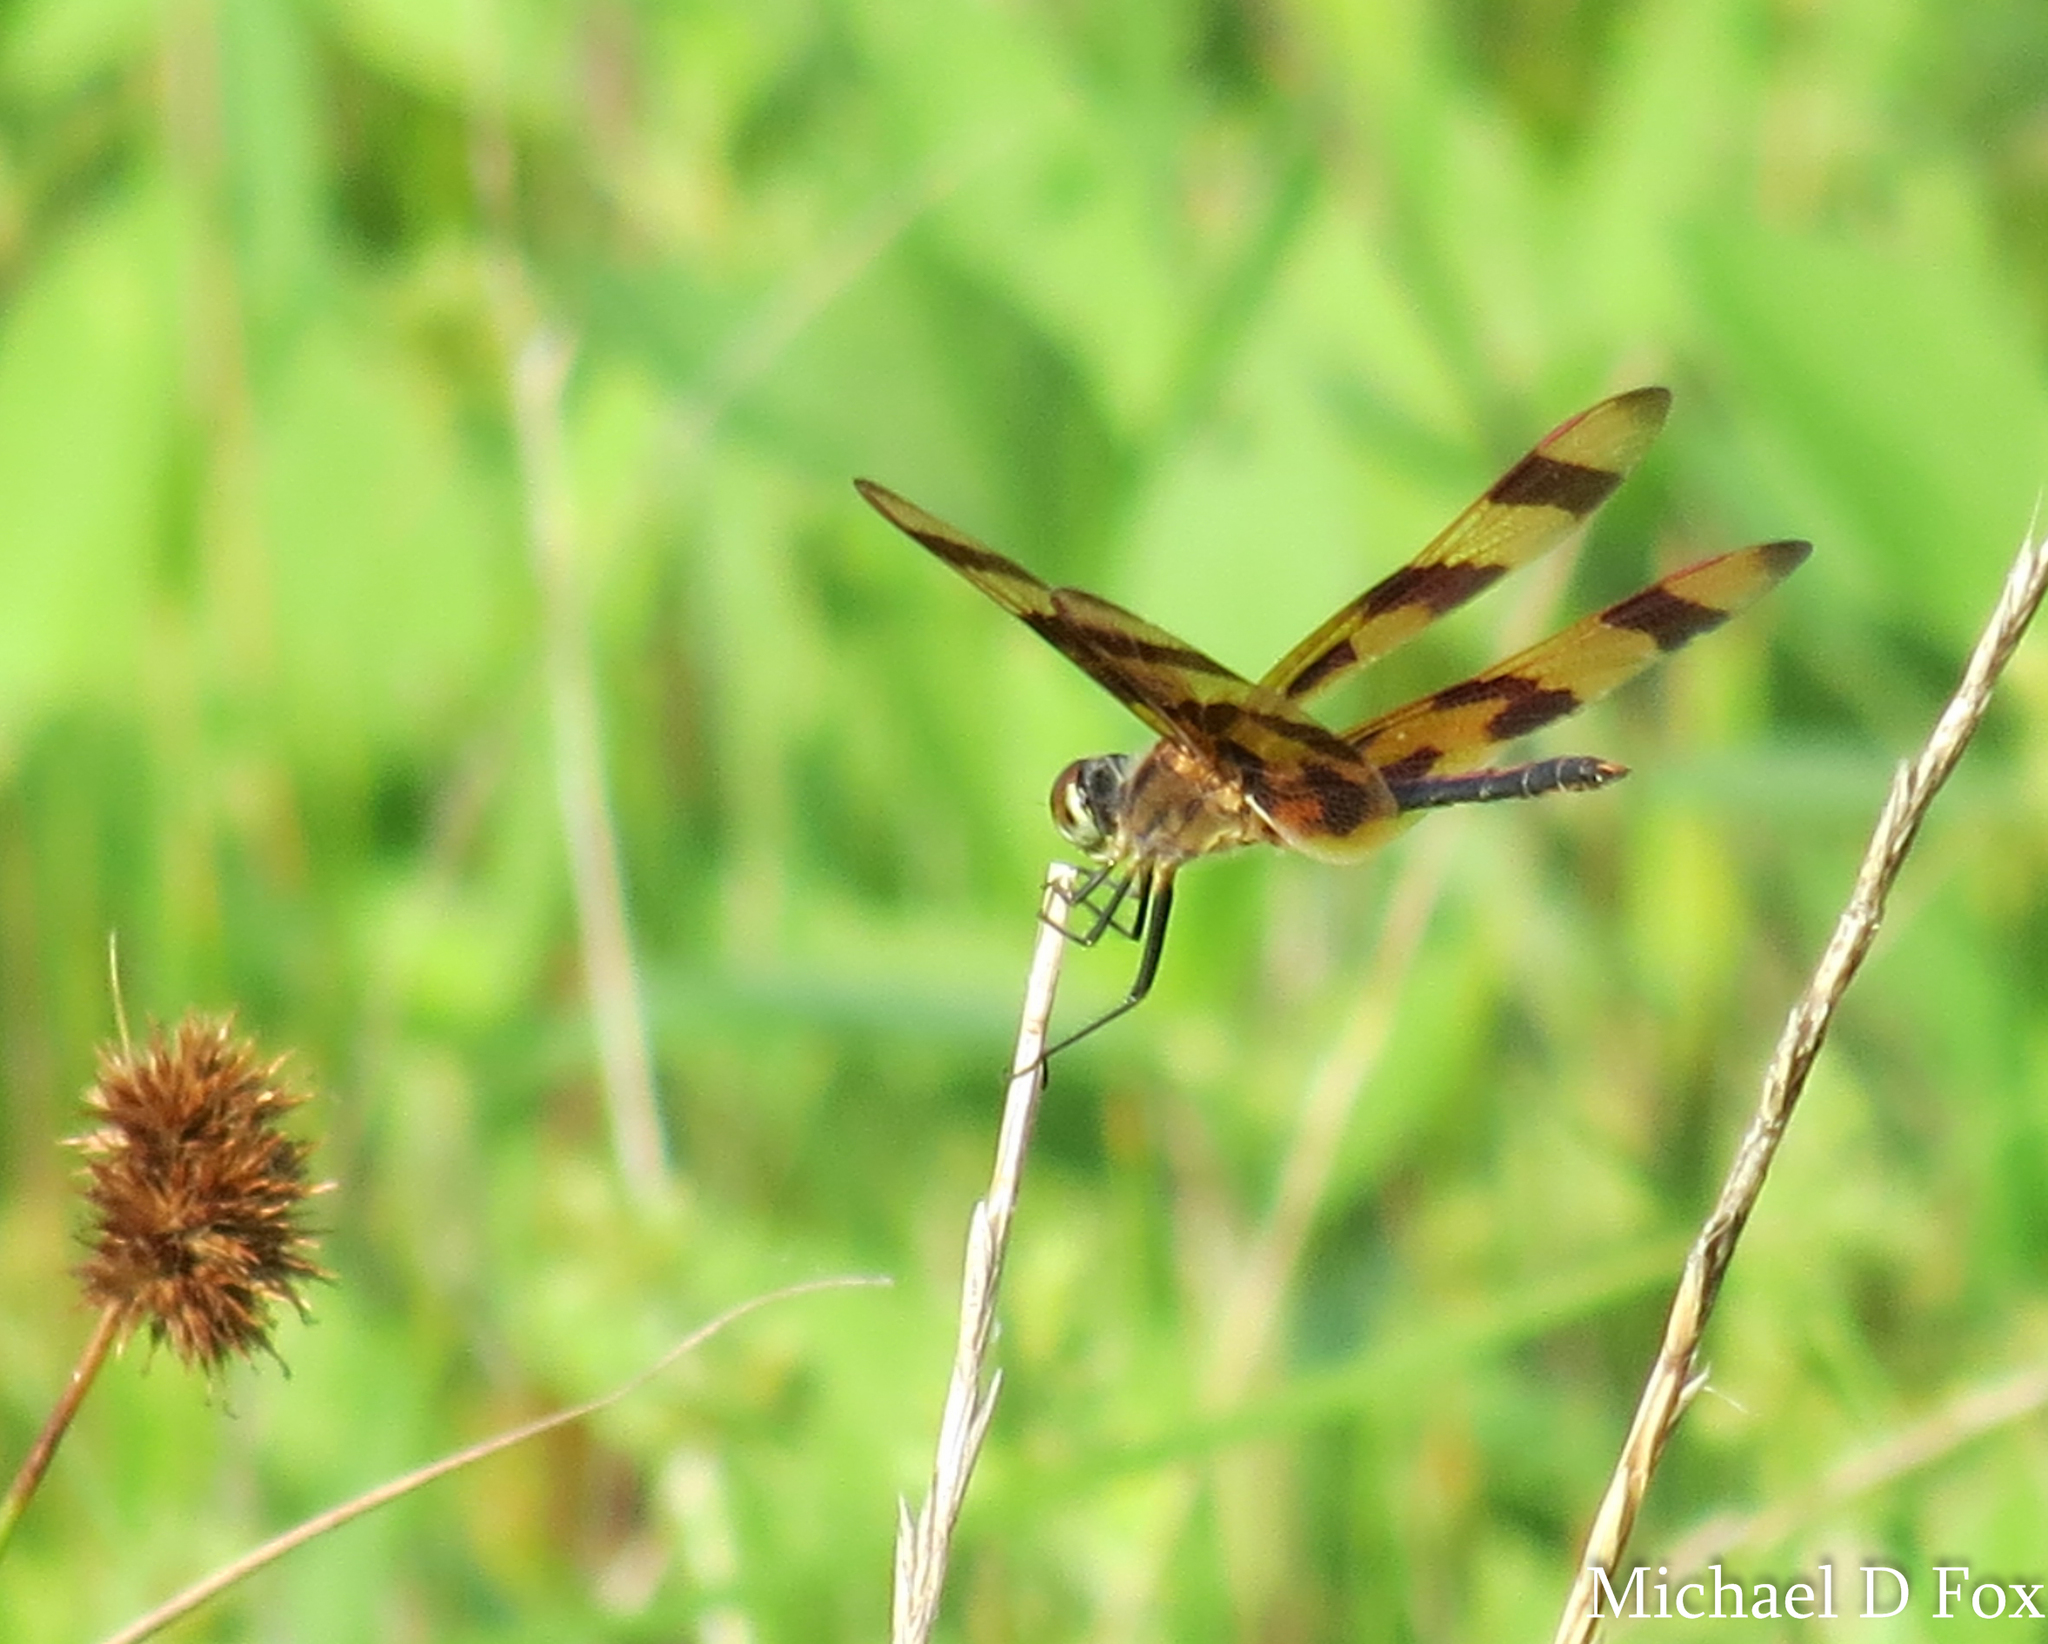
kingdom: Animalia
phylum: Arthropoda
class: Insecta
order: Odonata
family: Libellulidae
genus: Celithemis
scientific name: Celithemis eponina
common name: Halloween pennant
